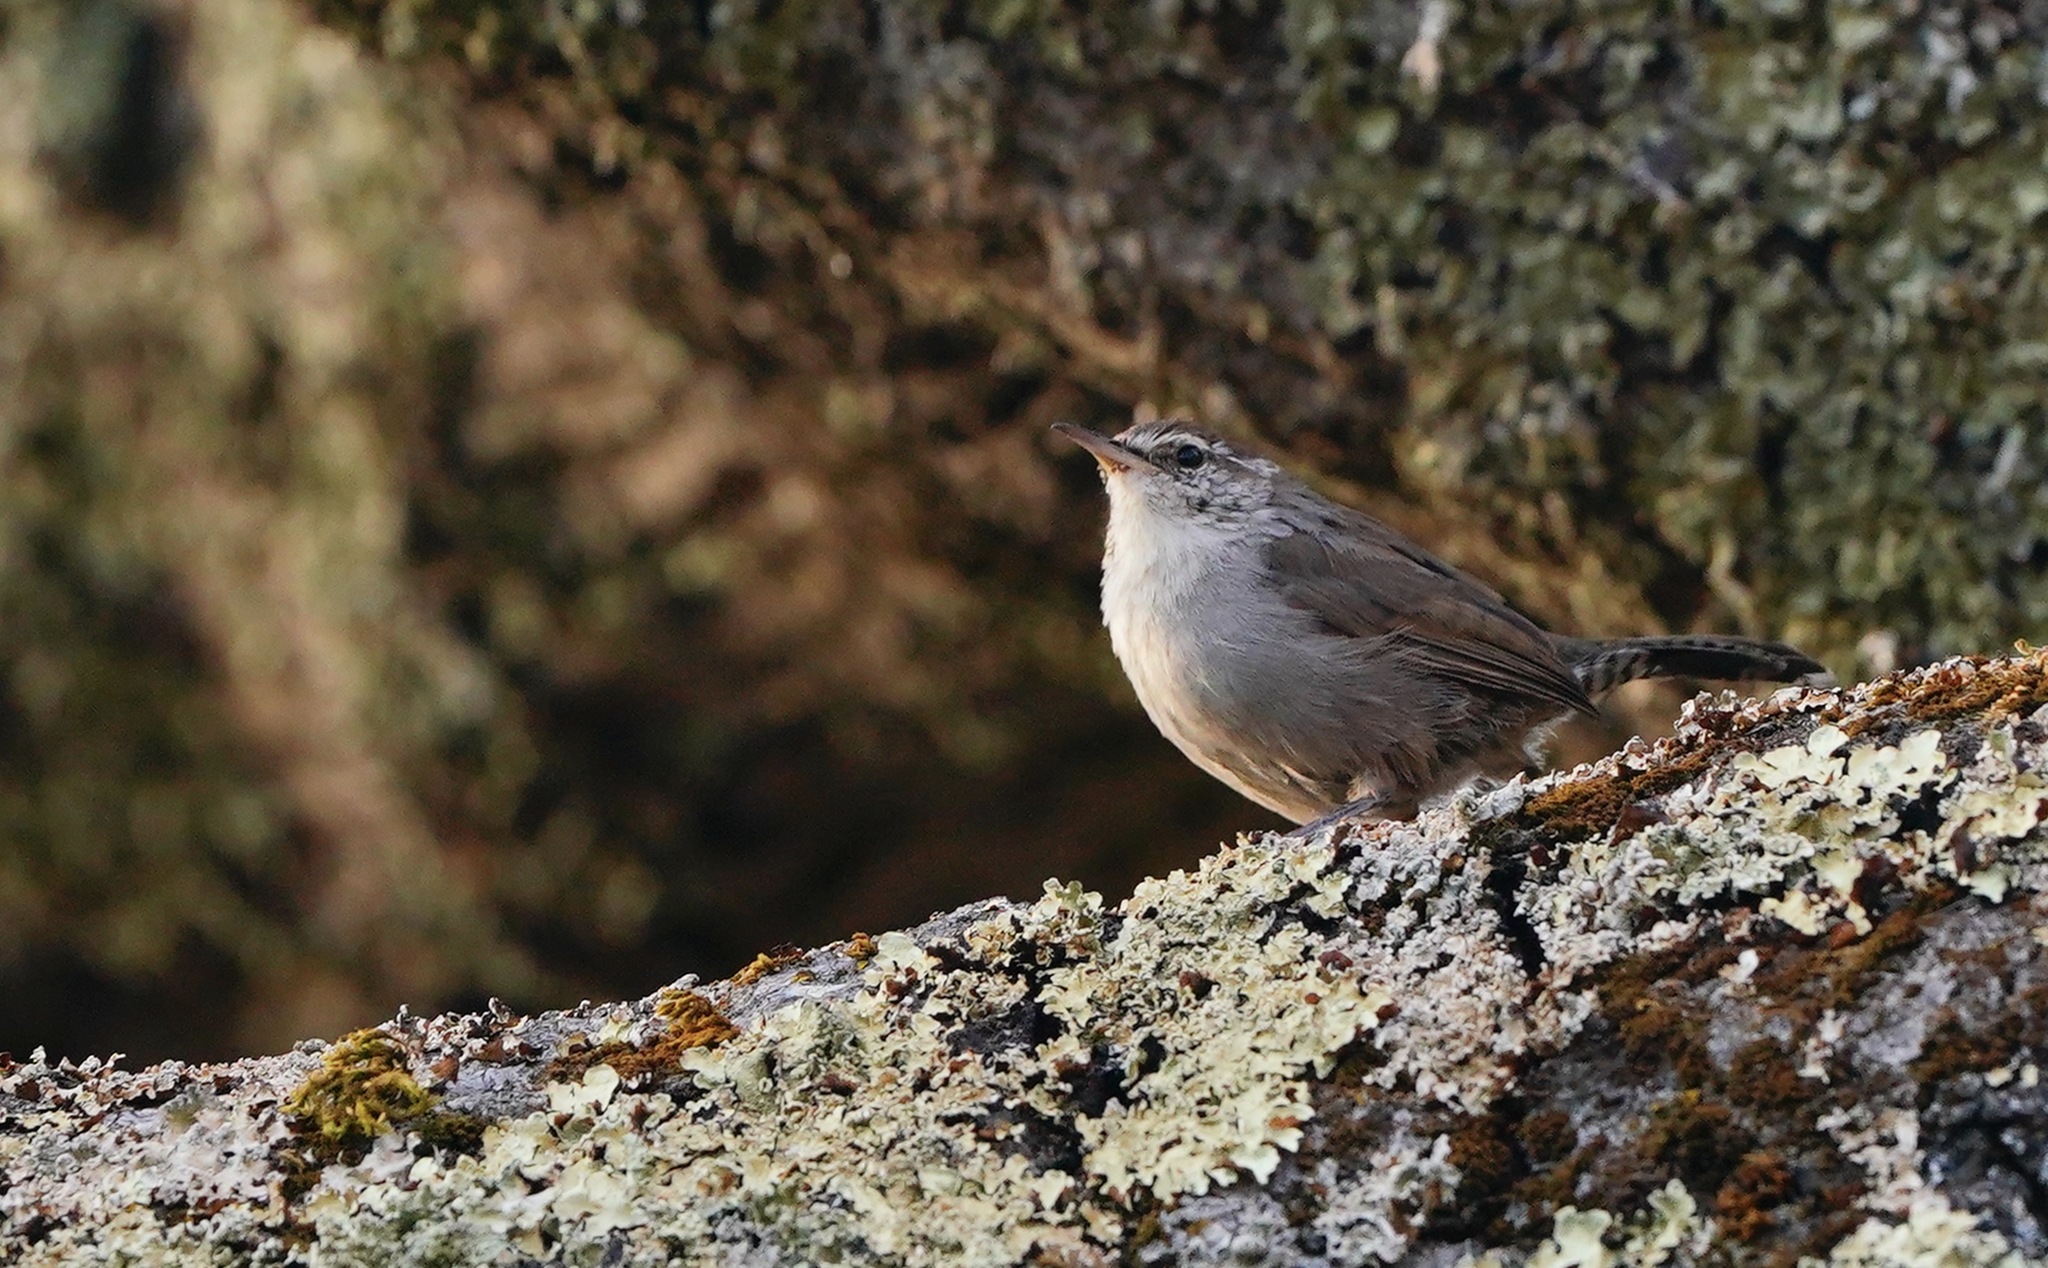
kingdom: Animalia
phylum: Chordata
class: Aves
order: Passeriformes
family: Troglodytidae
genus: Thryomanes
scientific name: Thryomanes bewickii
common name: Bewick's wren
